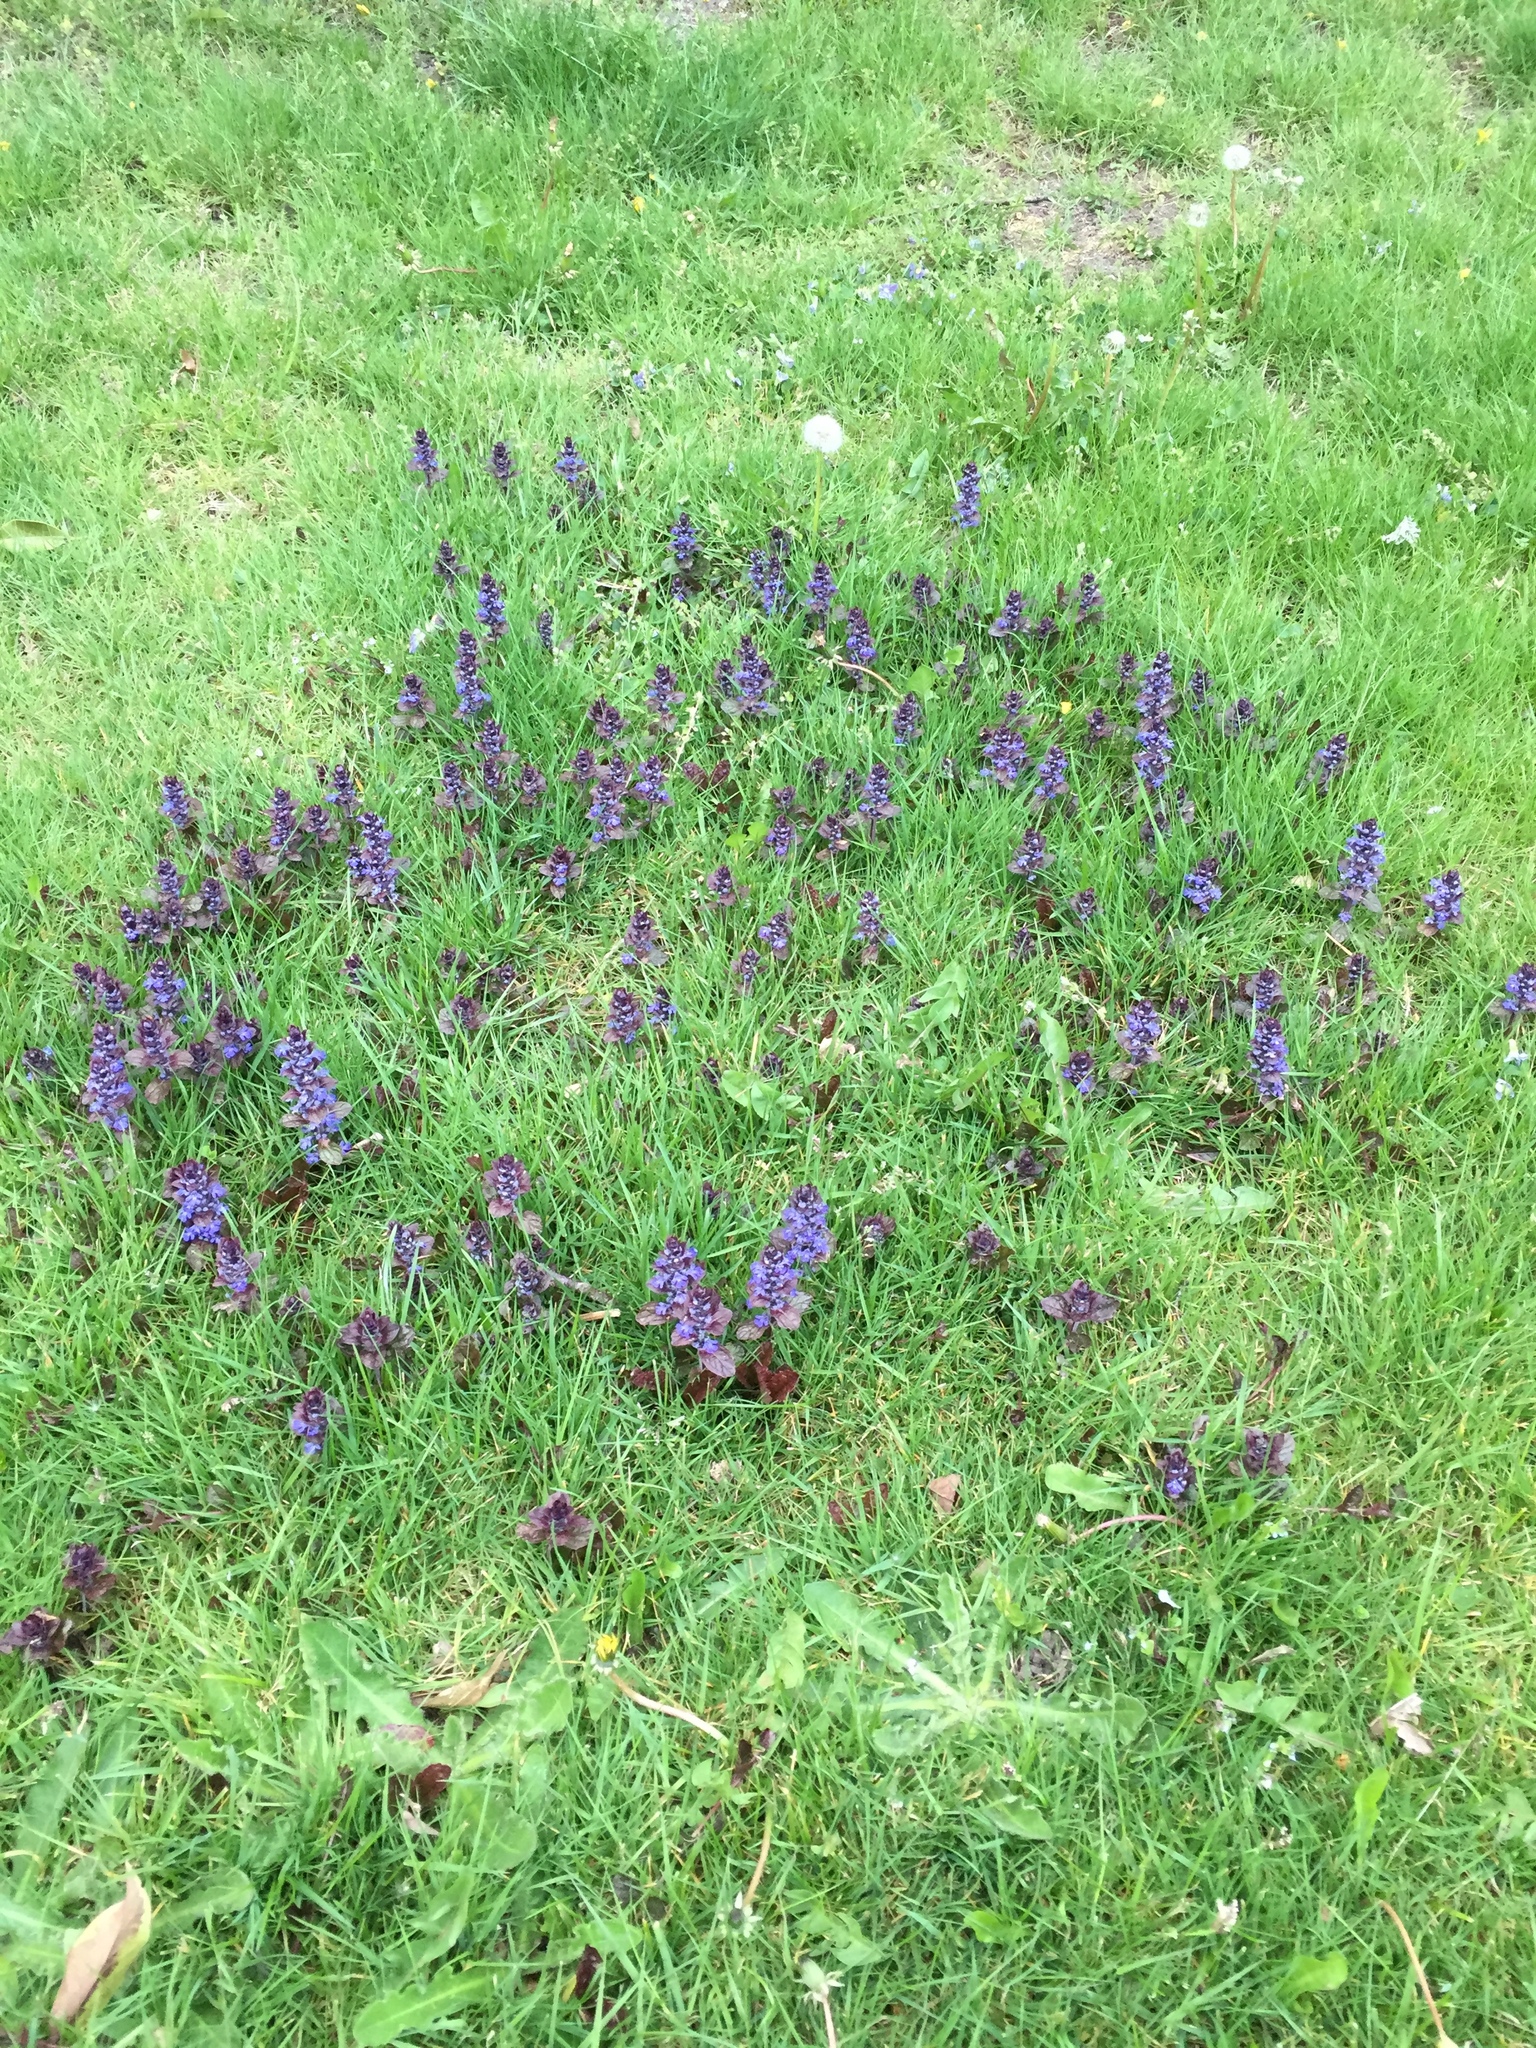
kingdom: Plantae
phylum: Tracheophyta
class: Magnoliopsida
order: Lamiales
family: Lamiaceae
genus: Ajuga
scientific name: Ajuga reptans
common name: Bugle
